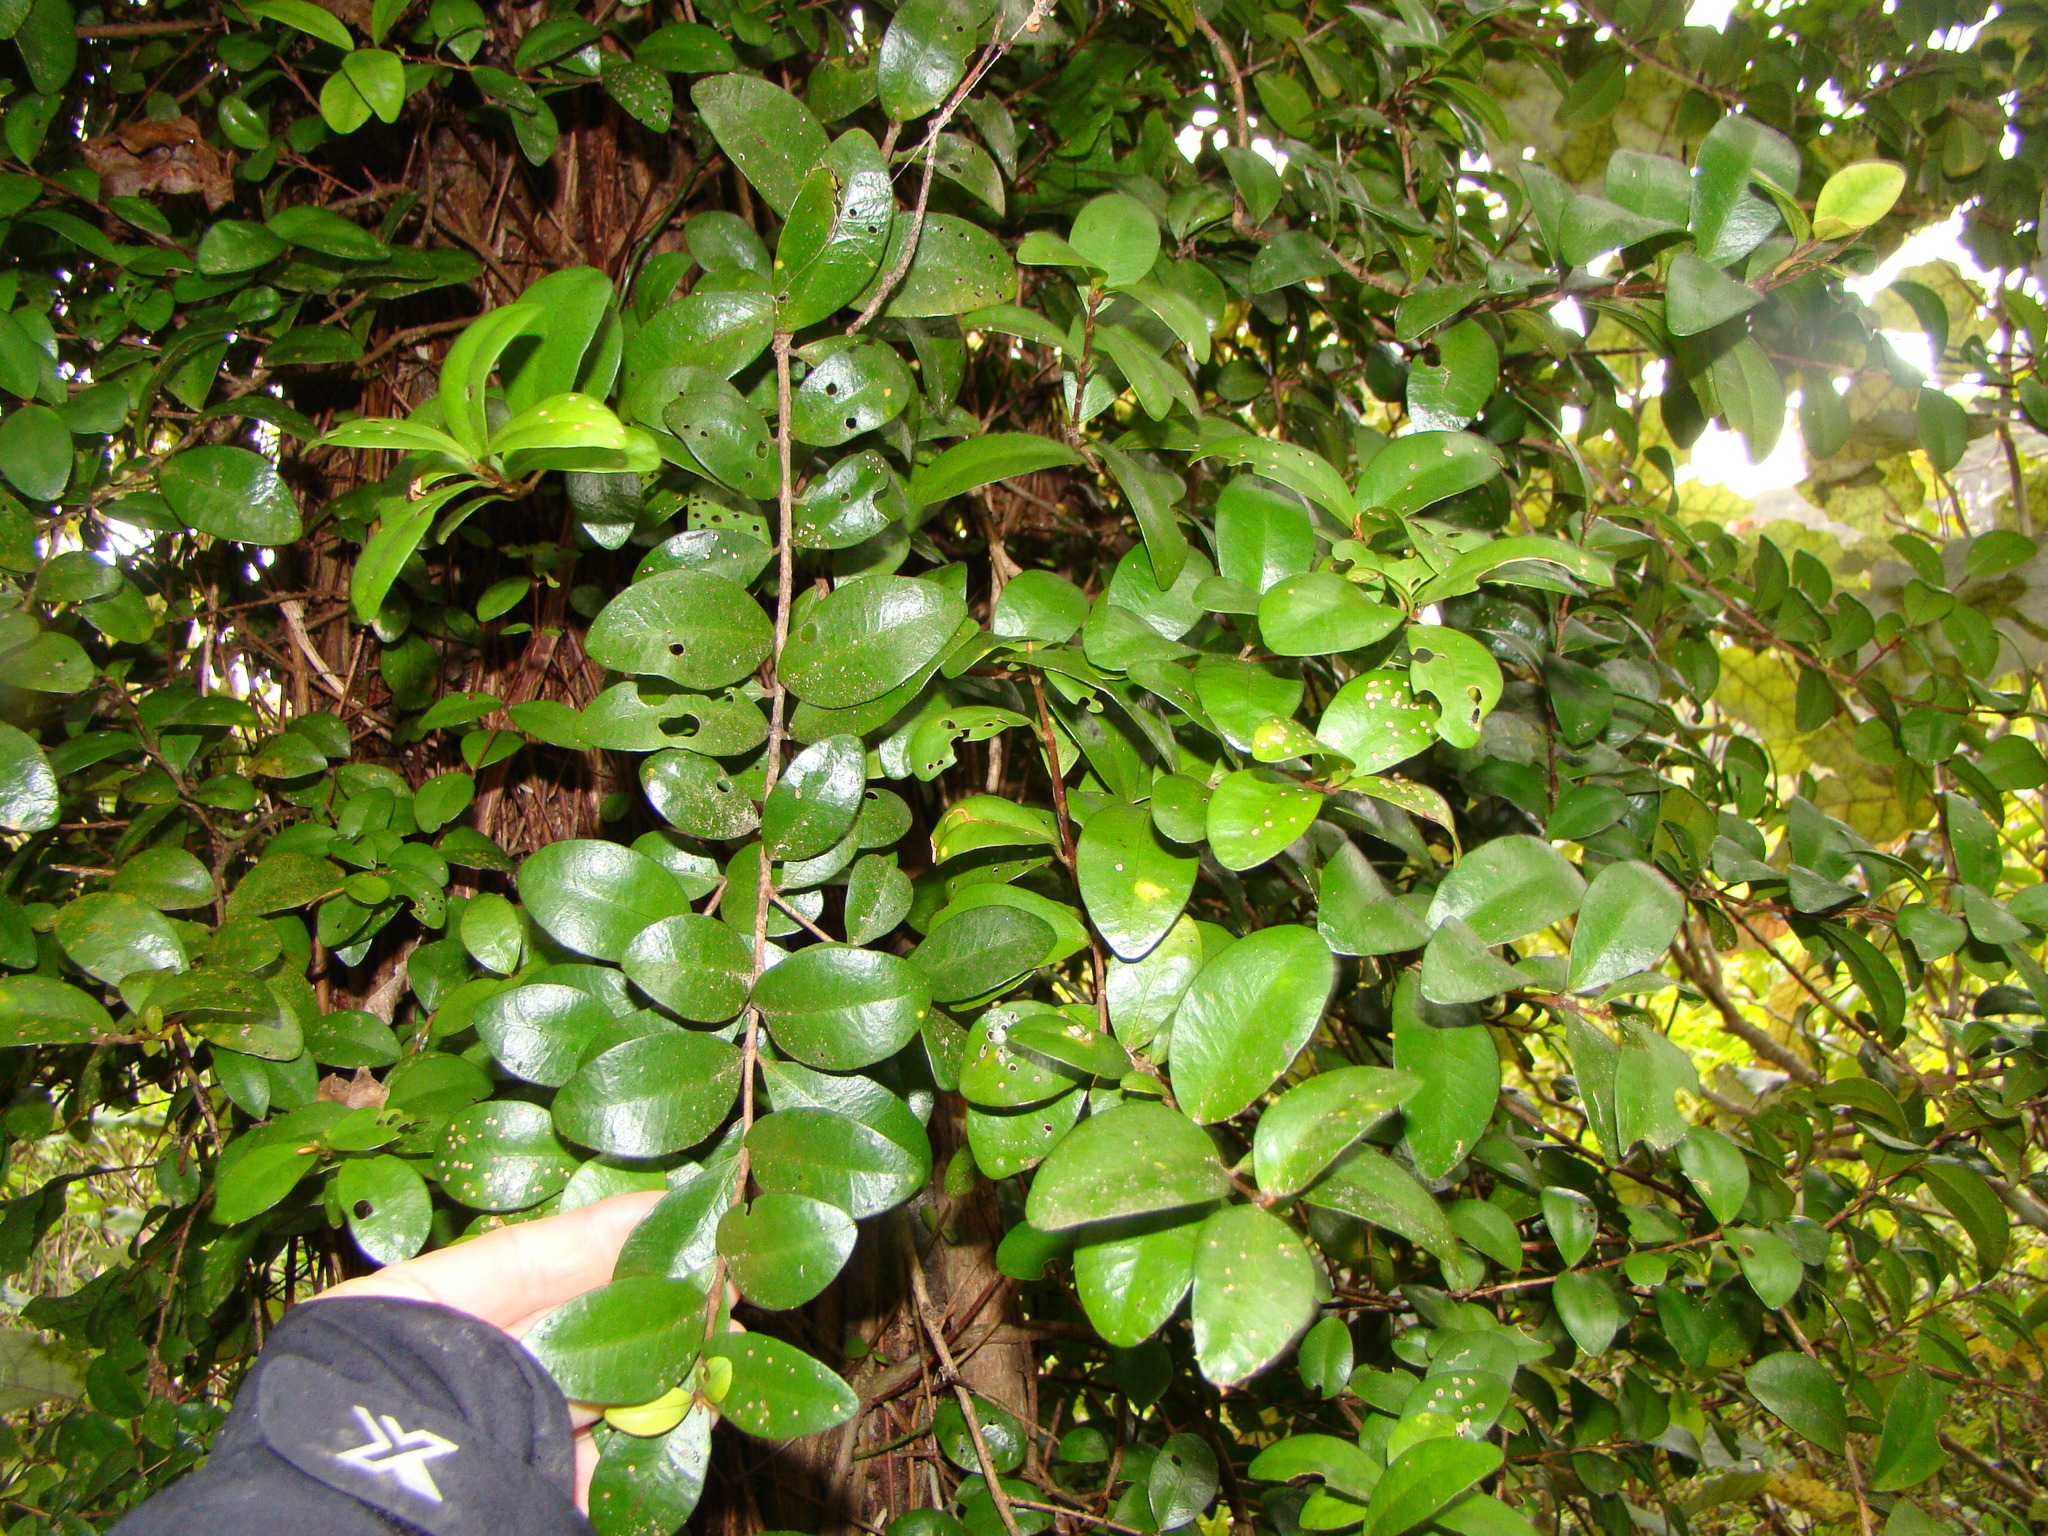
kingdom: Plantae
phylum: Tracheophyta
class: Magnoliopsida
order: Myrtales
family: Myrtaceae
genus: Metrosideros
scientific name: Metrosideros fulgens
